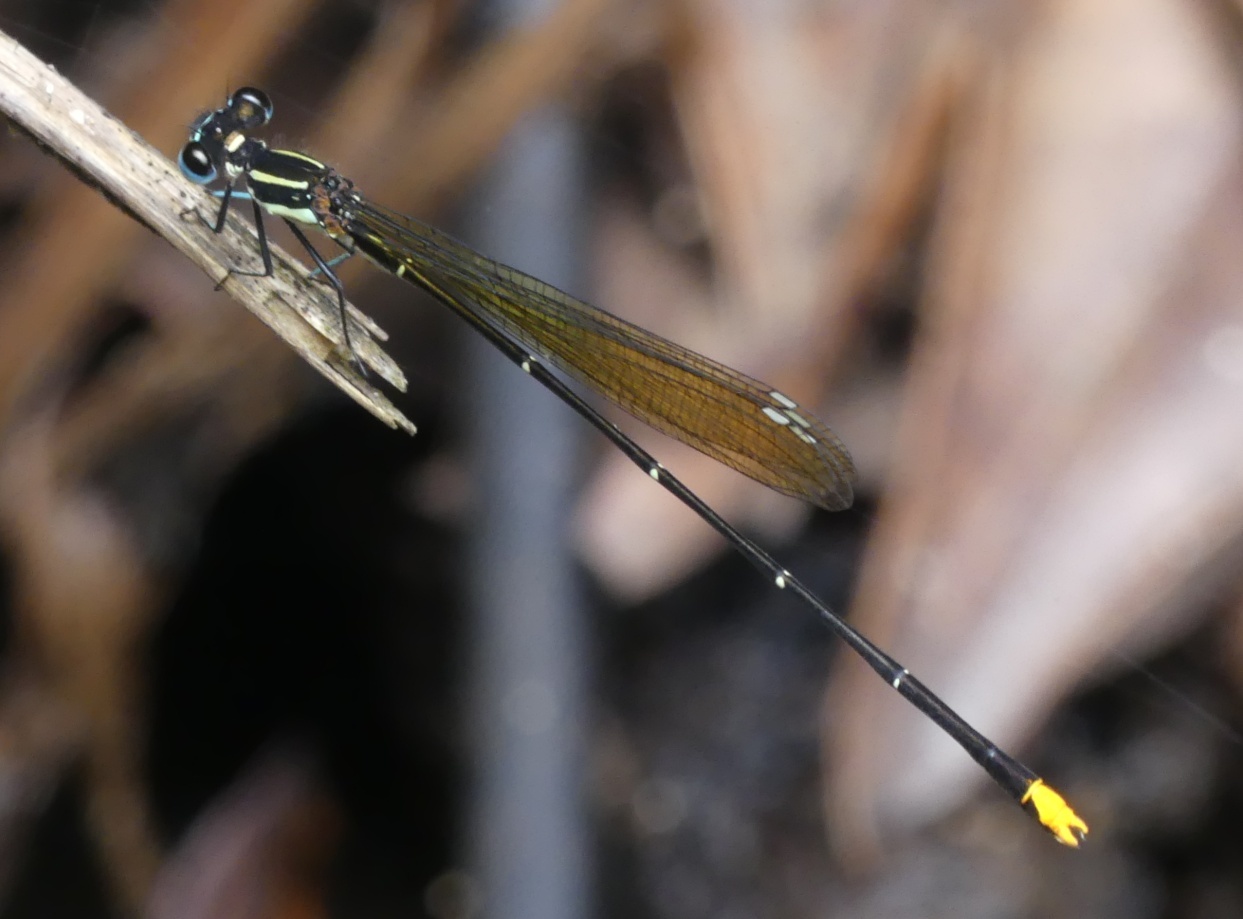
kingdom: Animalia
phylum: Arthropoda
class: Insecta
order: Odonata
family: Platycnemididae
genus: Allocnemis
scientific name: Allocnemis leucosticta
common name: Goldtail
